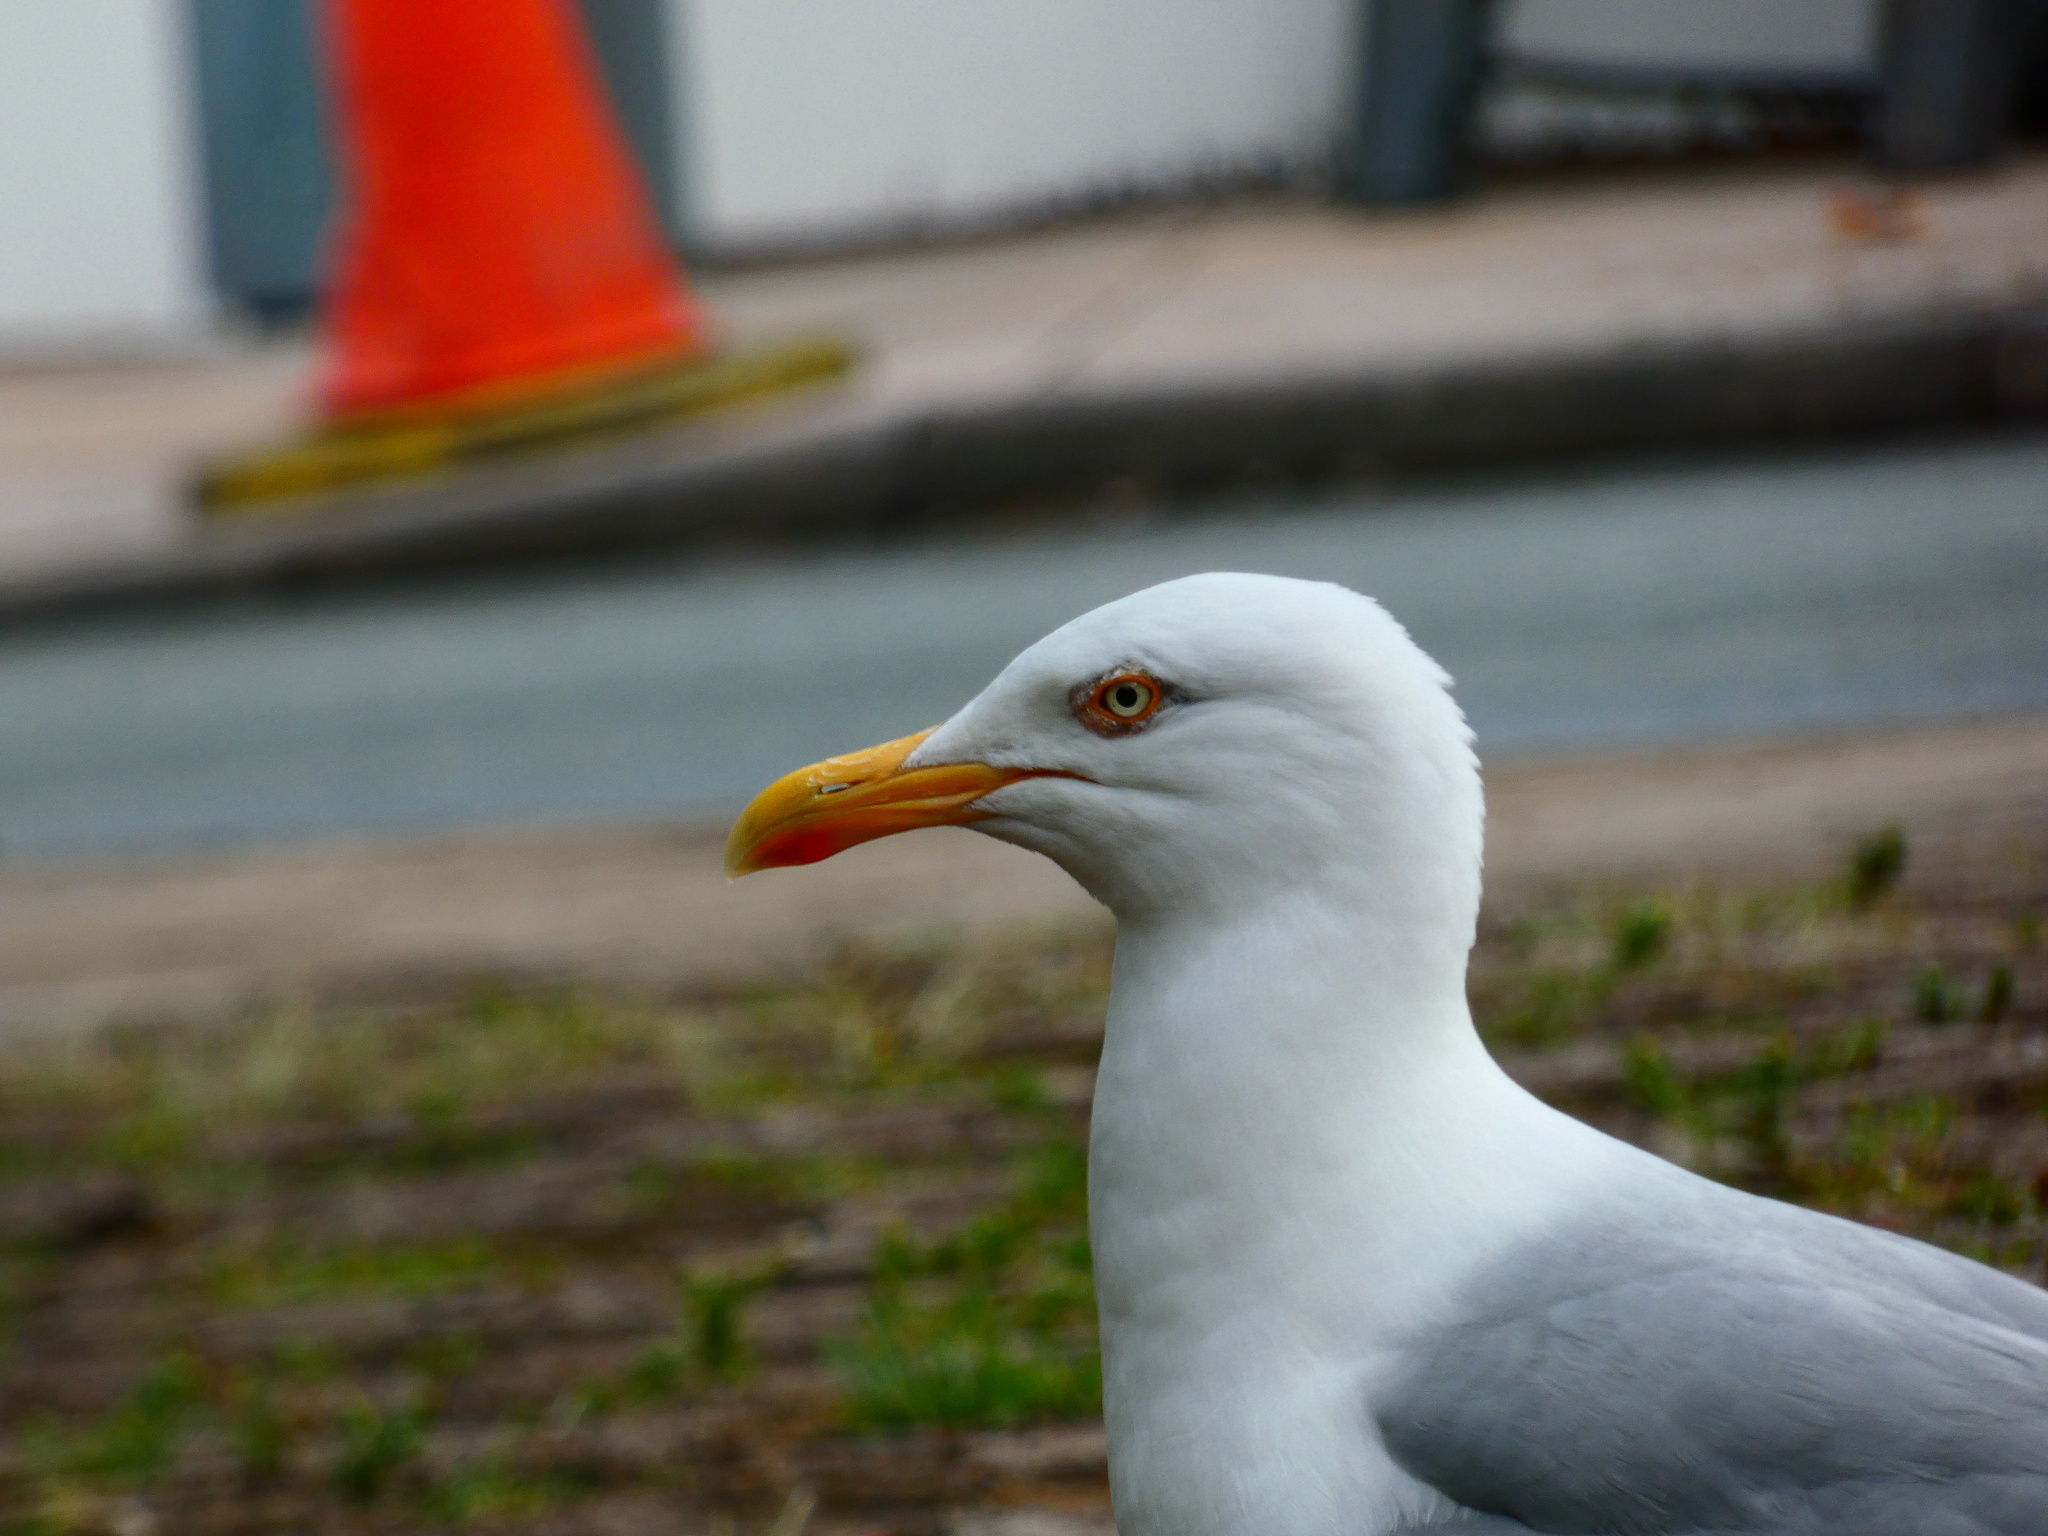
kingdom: Animalia
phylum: Chordata
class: Aves
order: Charadriiformes
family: Laridae
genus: Larus
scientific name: Larus argentatus
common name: Herring gull
